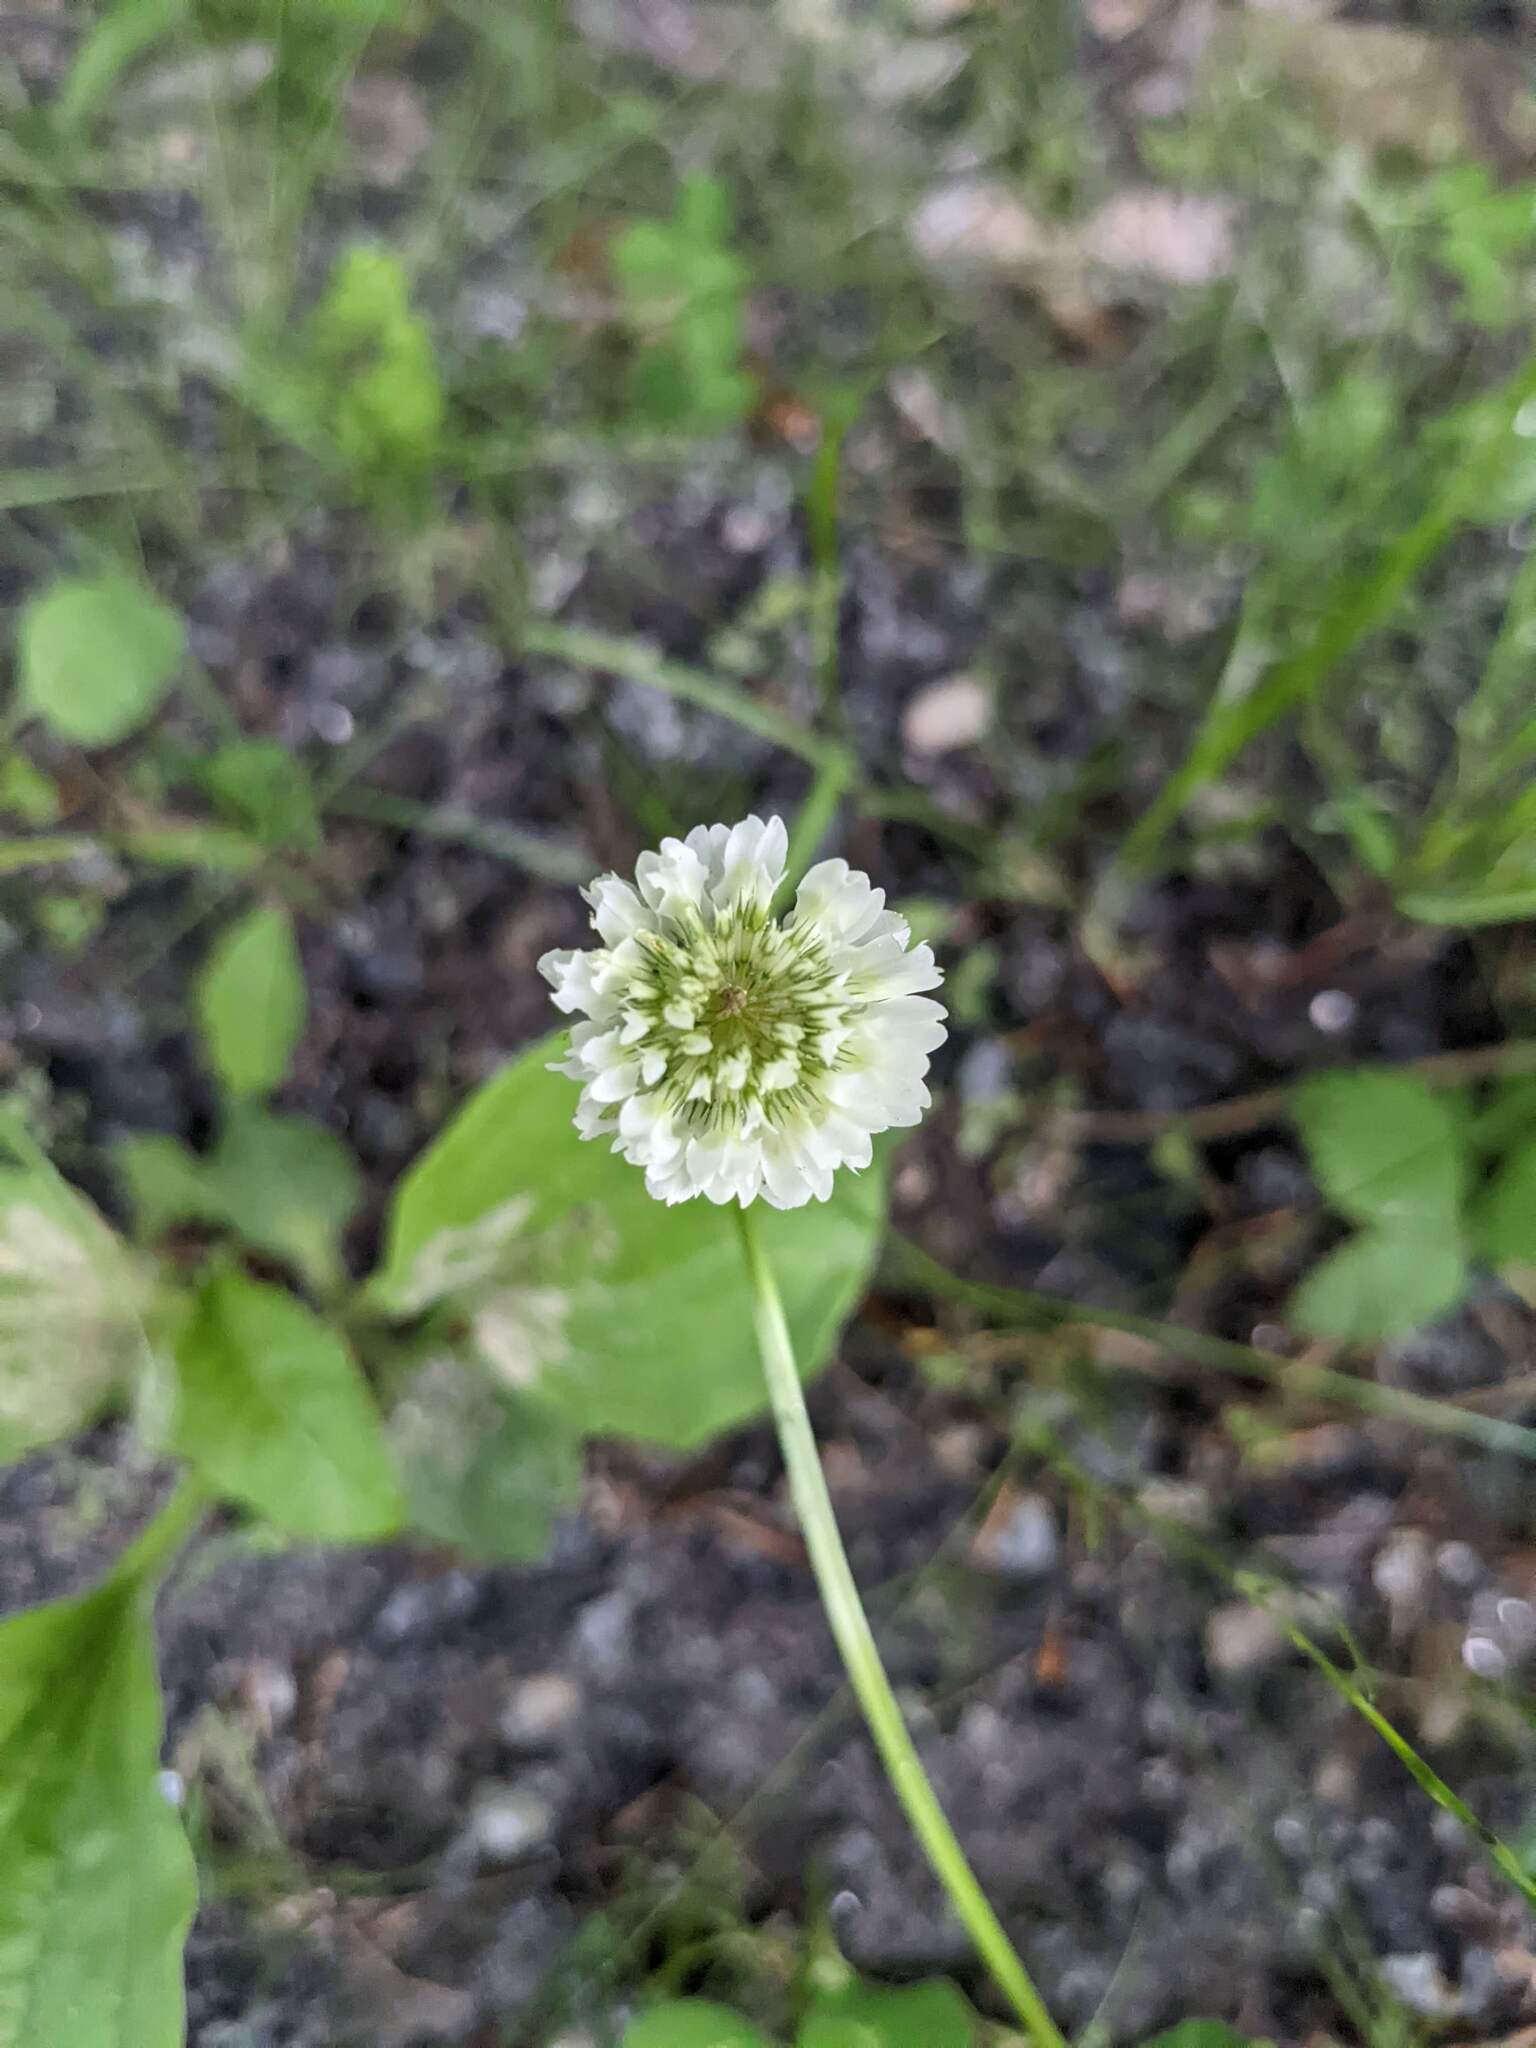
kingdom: Plantae
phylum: Tracheophyta
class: Magnoliopsida
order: Fabales
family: Fabaceae
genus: Trifolium
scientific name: Trifolium repens
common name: White clover
